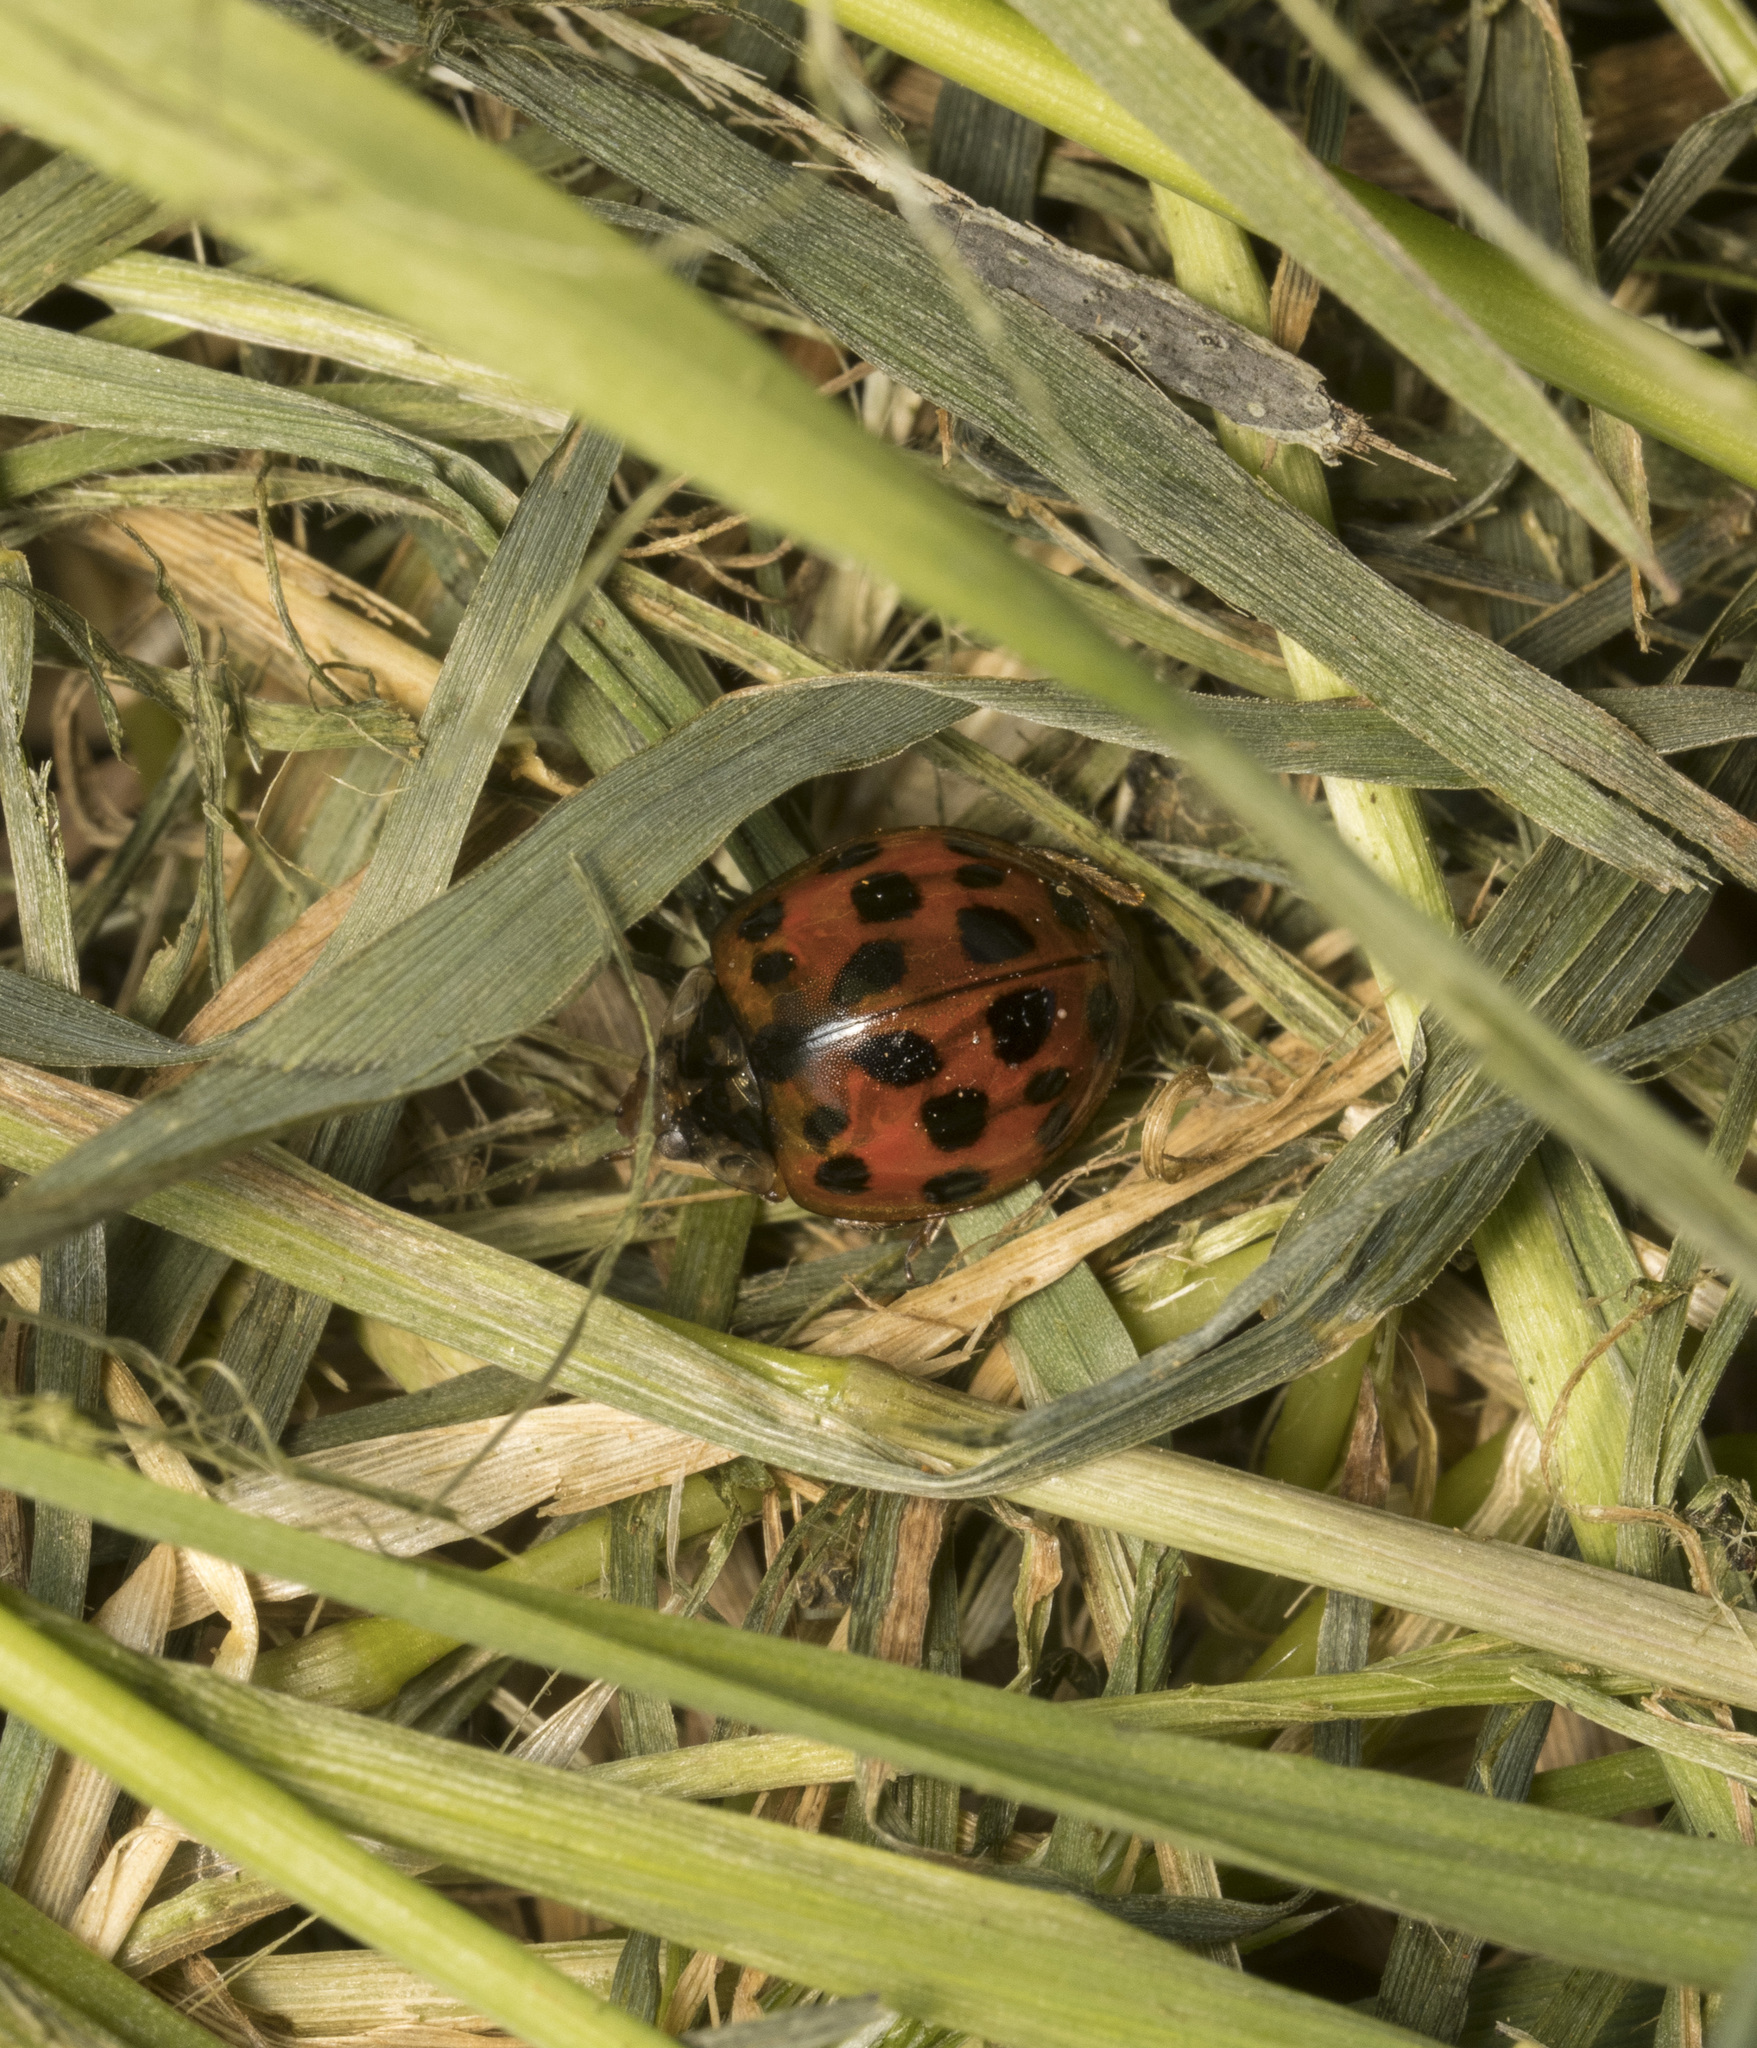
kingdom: Animalia
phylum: Arthropoda
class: Insecta
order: Coleoptera
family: Coccinellidae
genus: Harmonia
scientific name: Harmonia axyridis
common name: Harlequin ladybird
